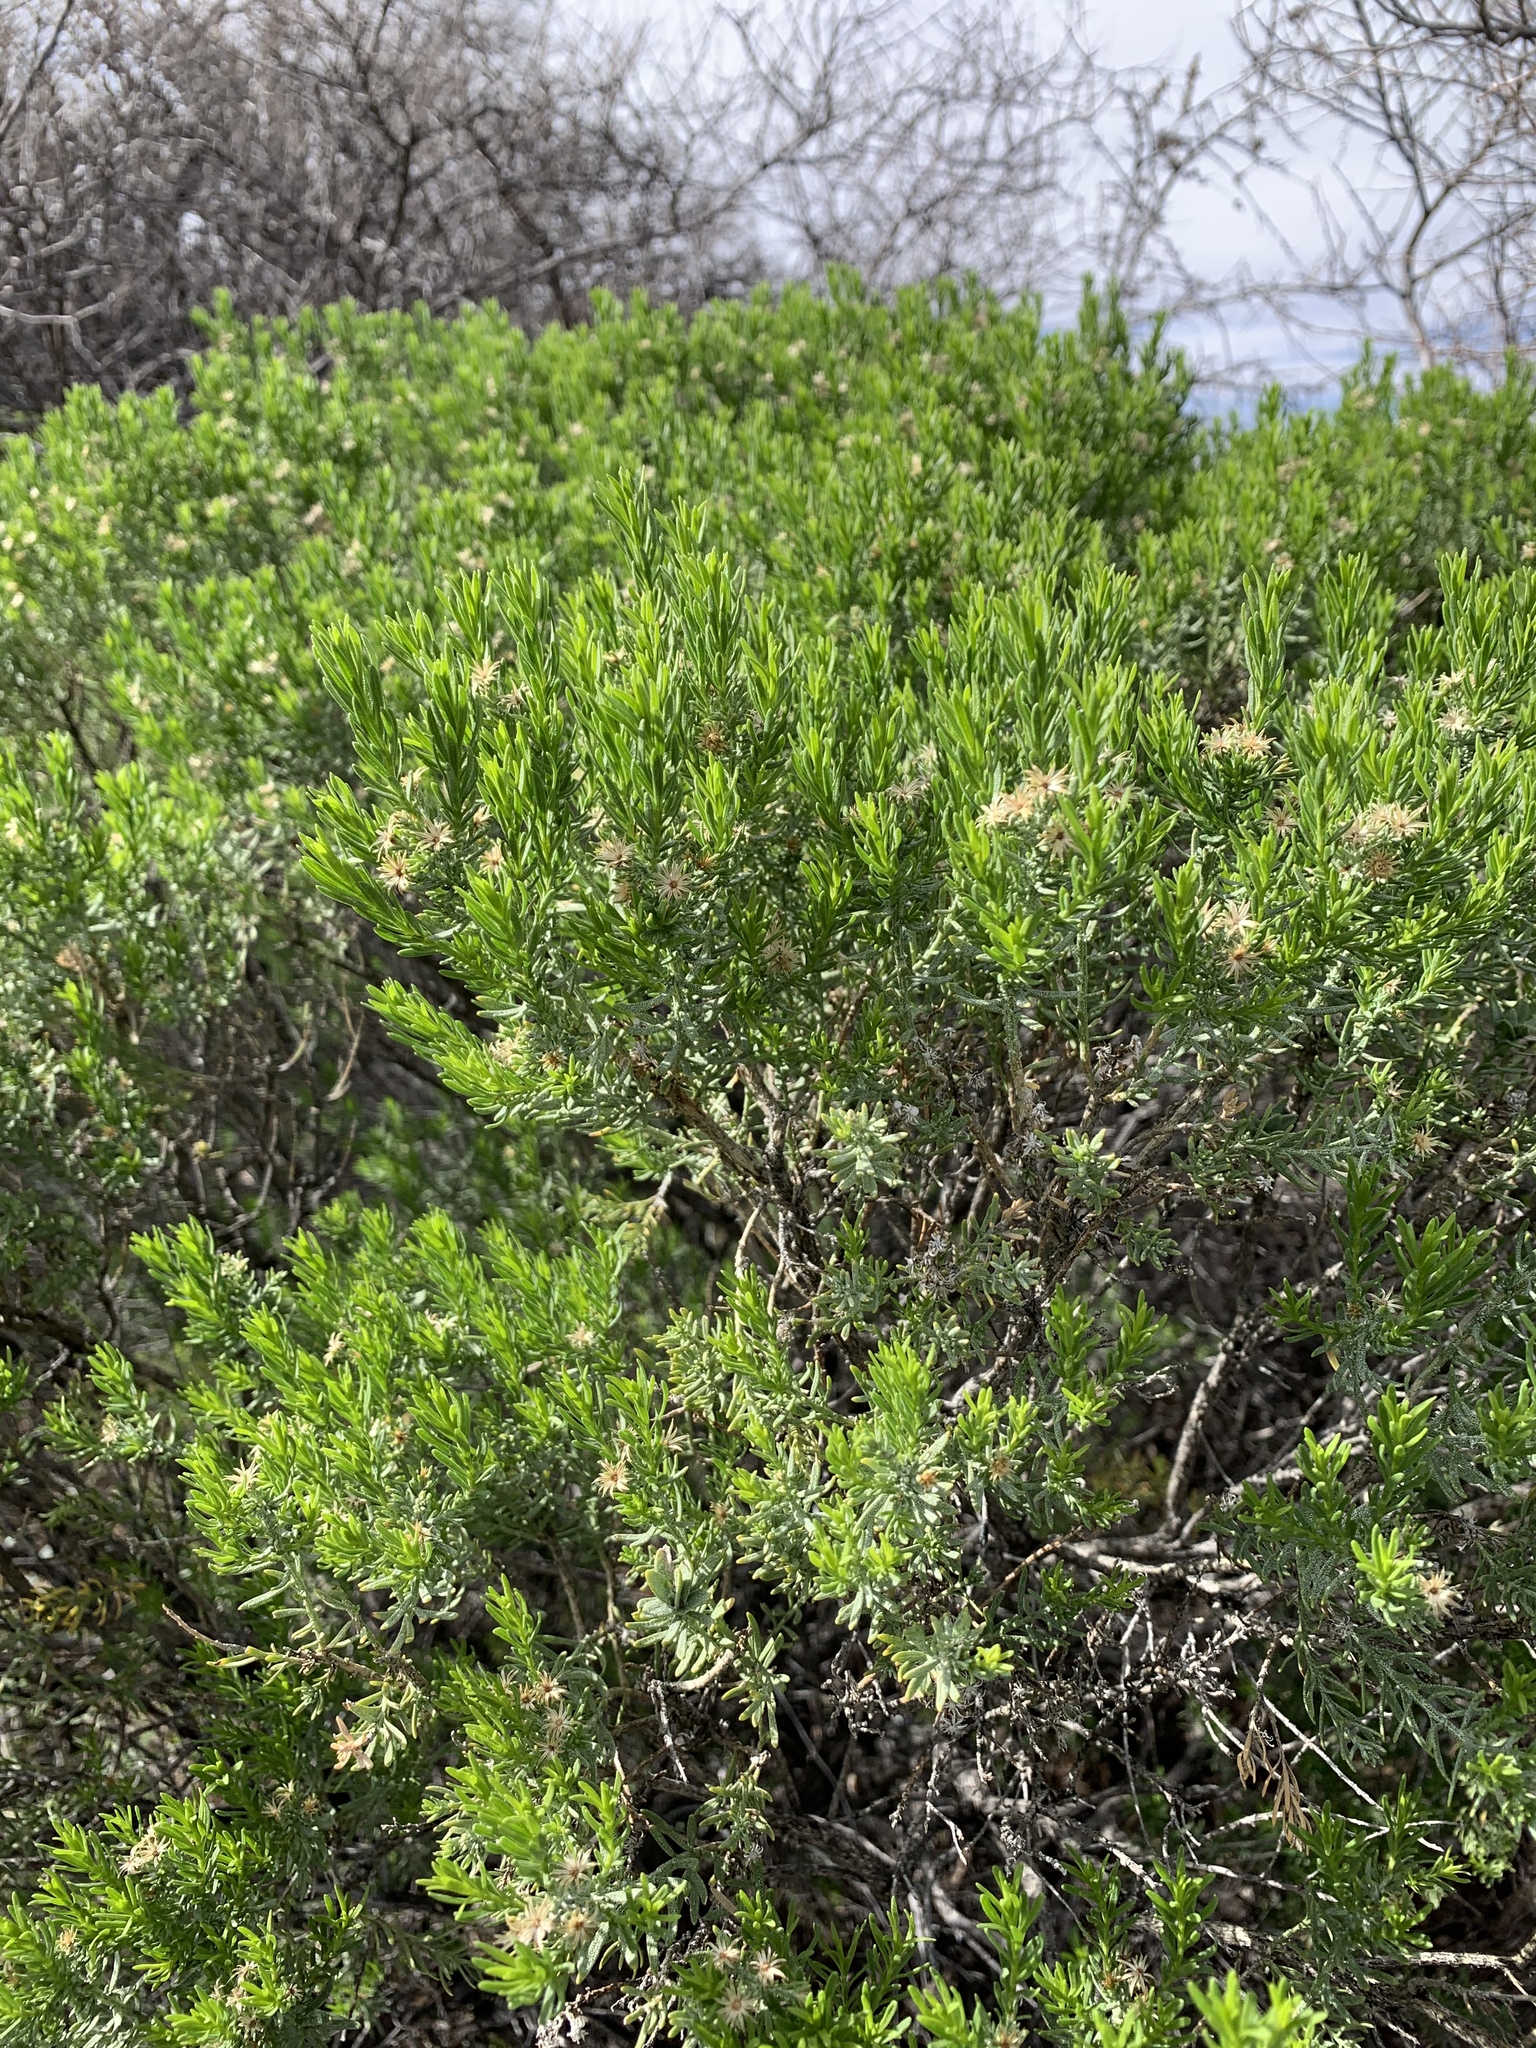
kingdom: Plantae
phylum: Tracheophyta
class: Magnoliopsida
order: Asterales
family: Asteraceae
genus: Ericameria
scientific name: Ericameria laricifolia
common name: Turpentine-bush
